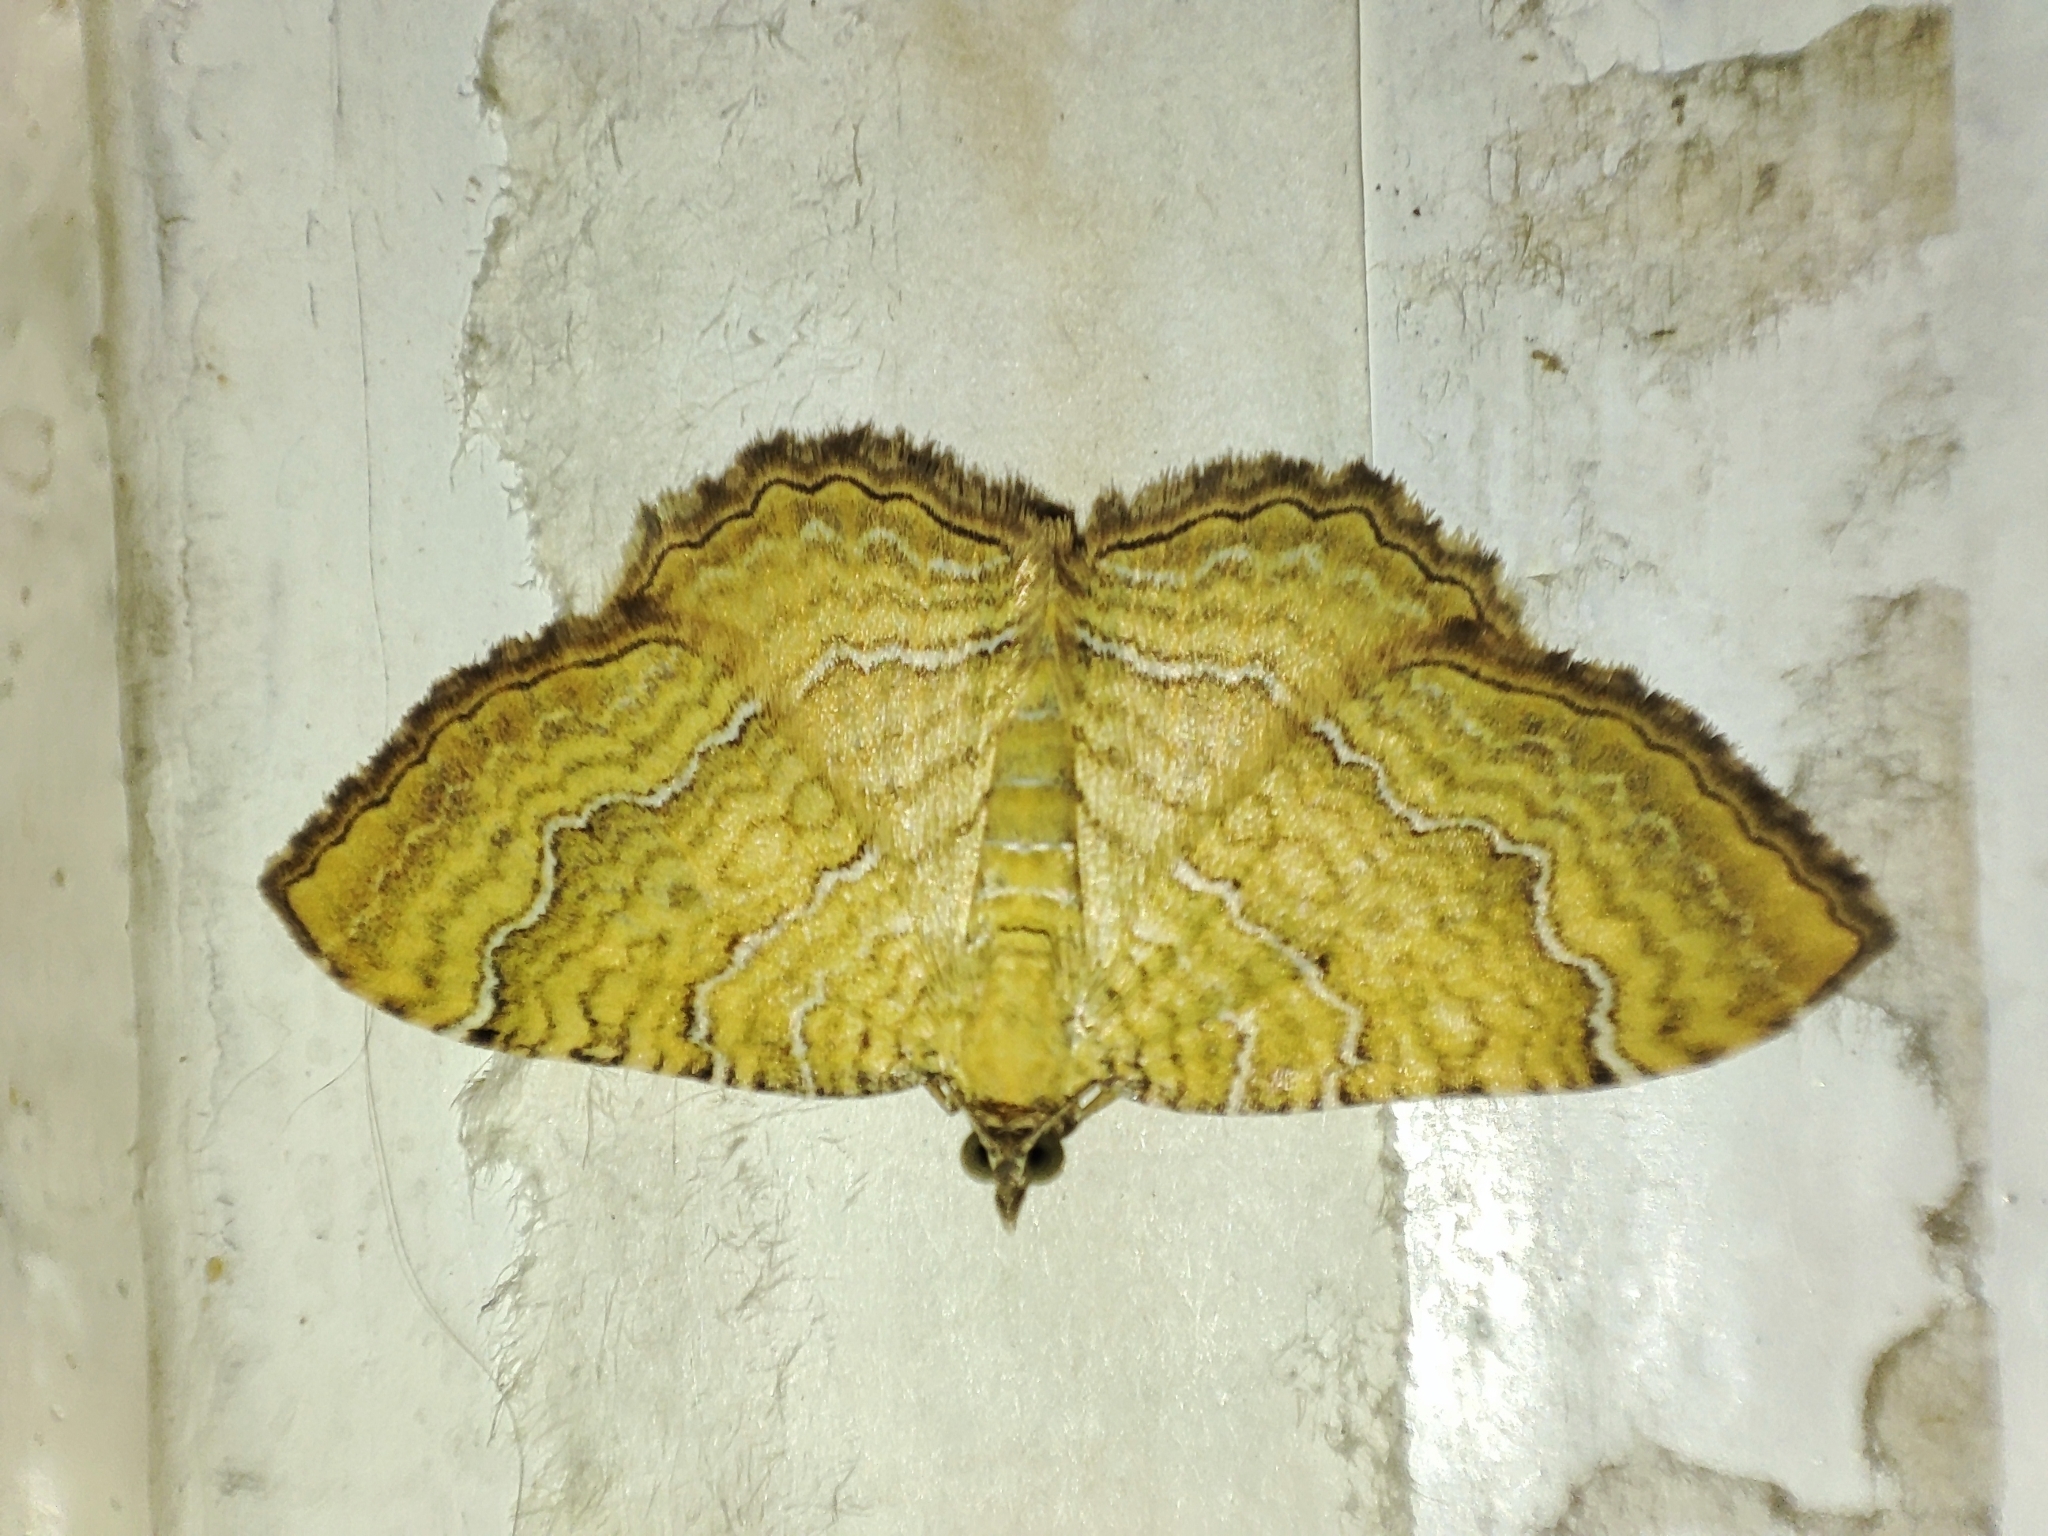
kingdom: Animalia
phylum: Arthropoda
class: Insecta
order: Lepidoptera
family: Geometridae
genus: Camptogramma
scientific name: Camptogramma bilineata
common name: Yellow shell
